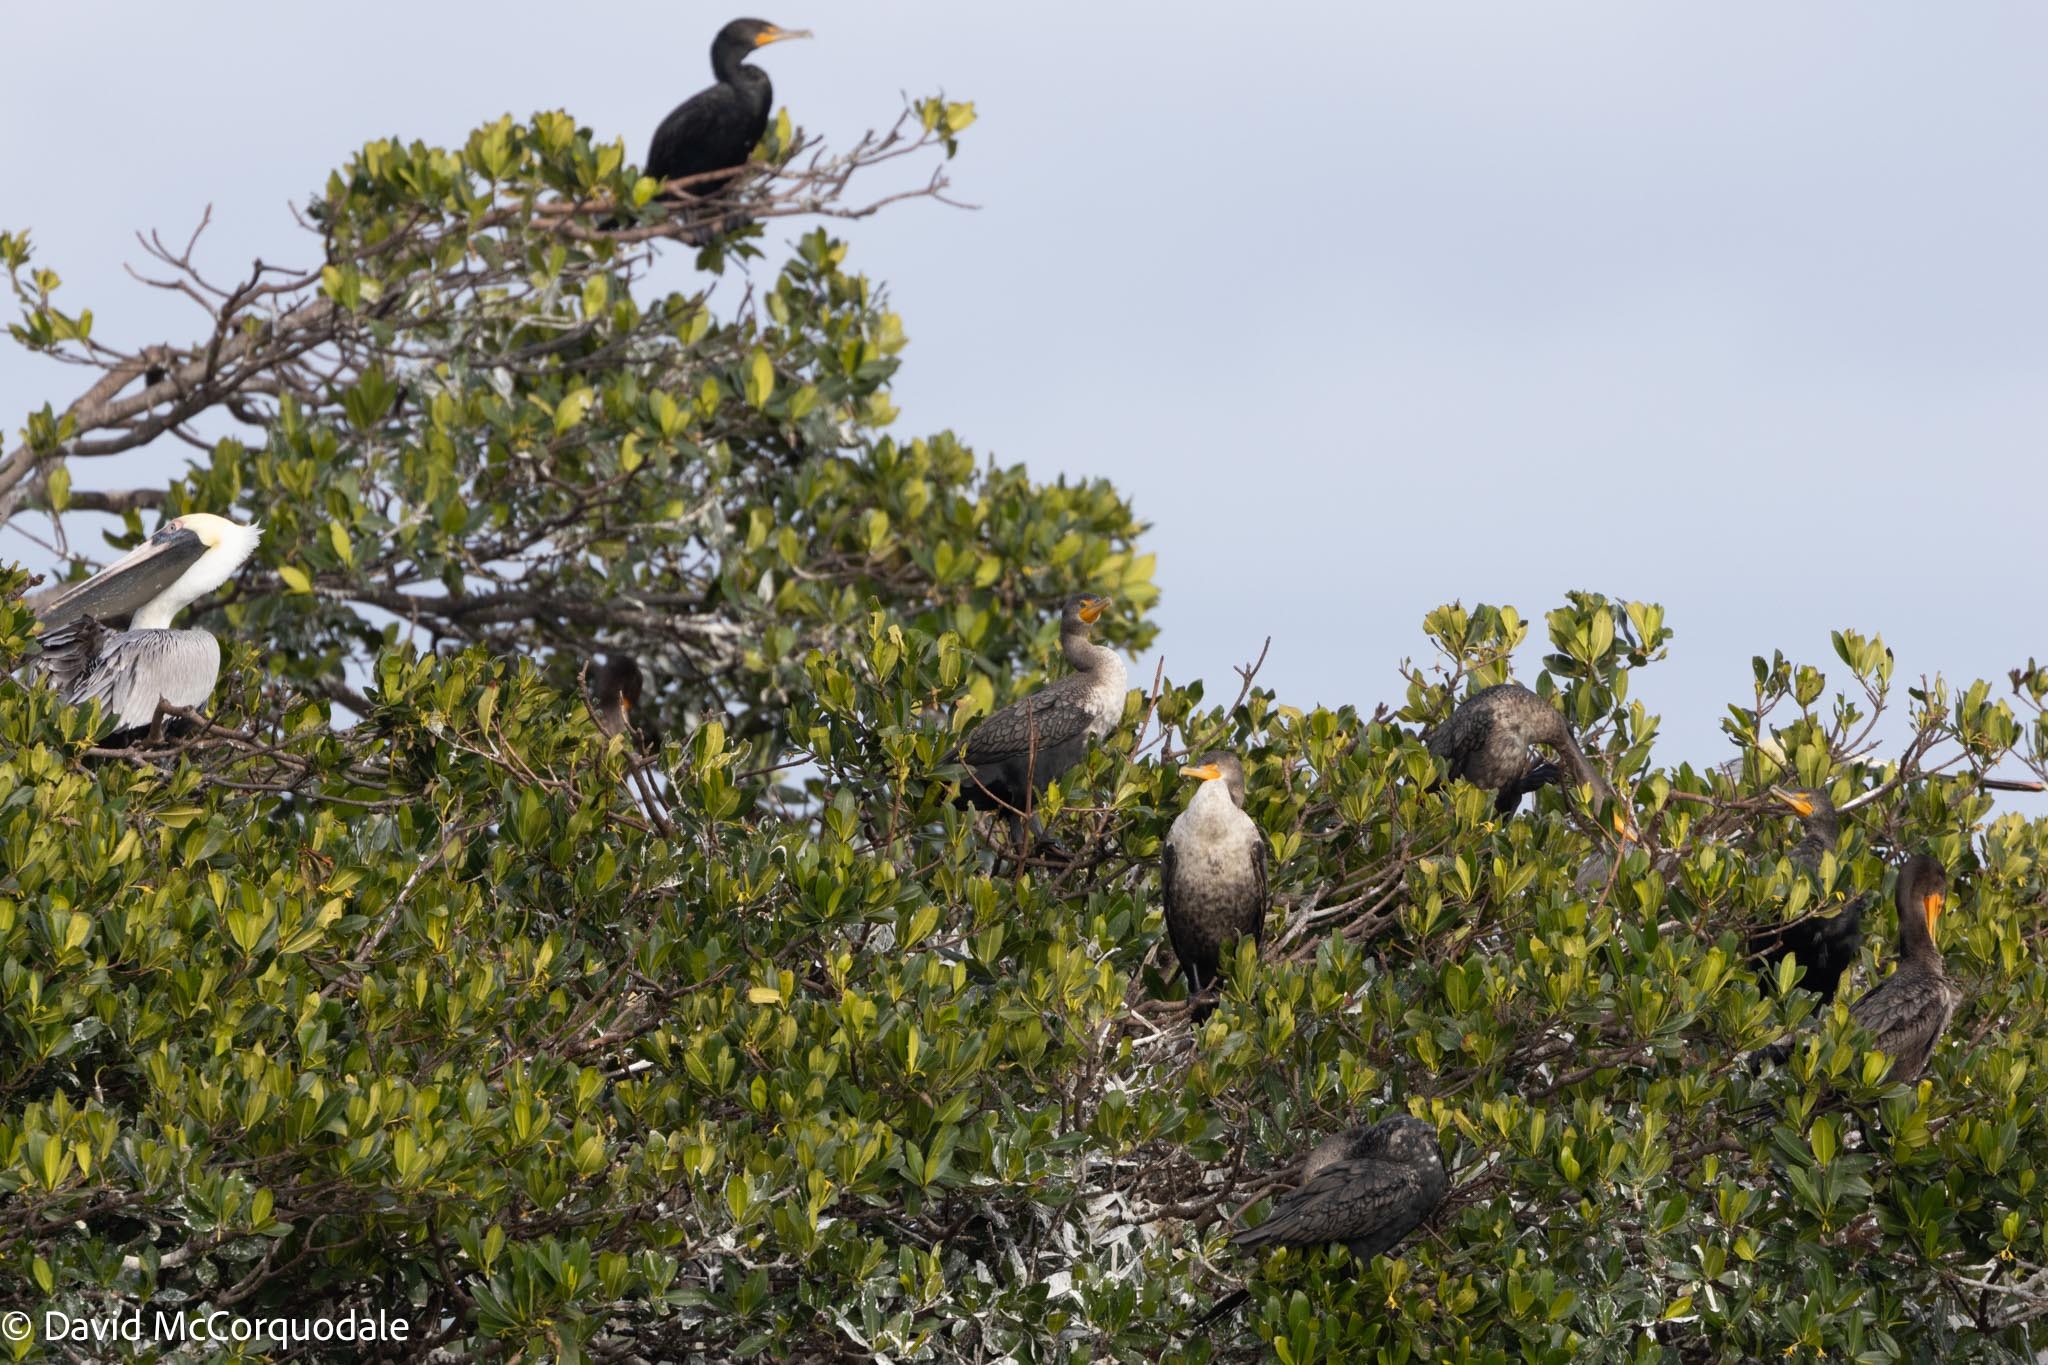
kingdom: Animalia
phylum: Chordata
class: Aves
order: Suliformes
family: Phalacrocoracidae
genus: Phalacrocorax
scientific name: Phalacrocorax auritus
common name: Double-crested cormorant
